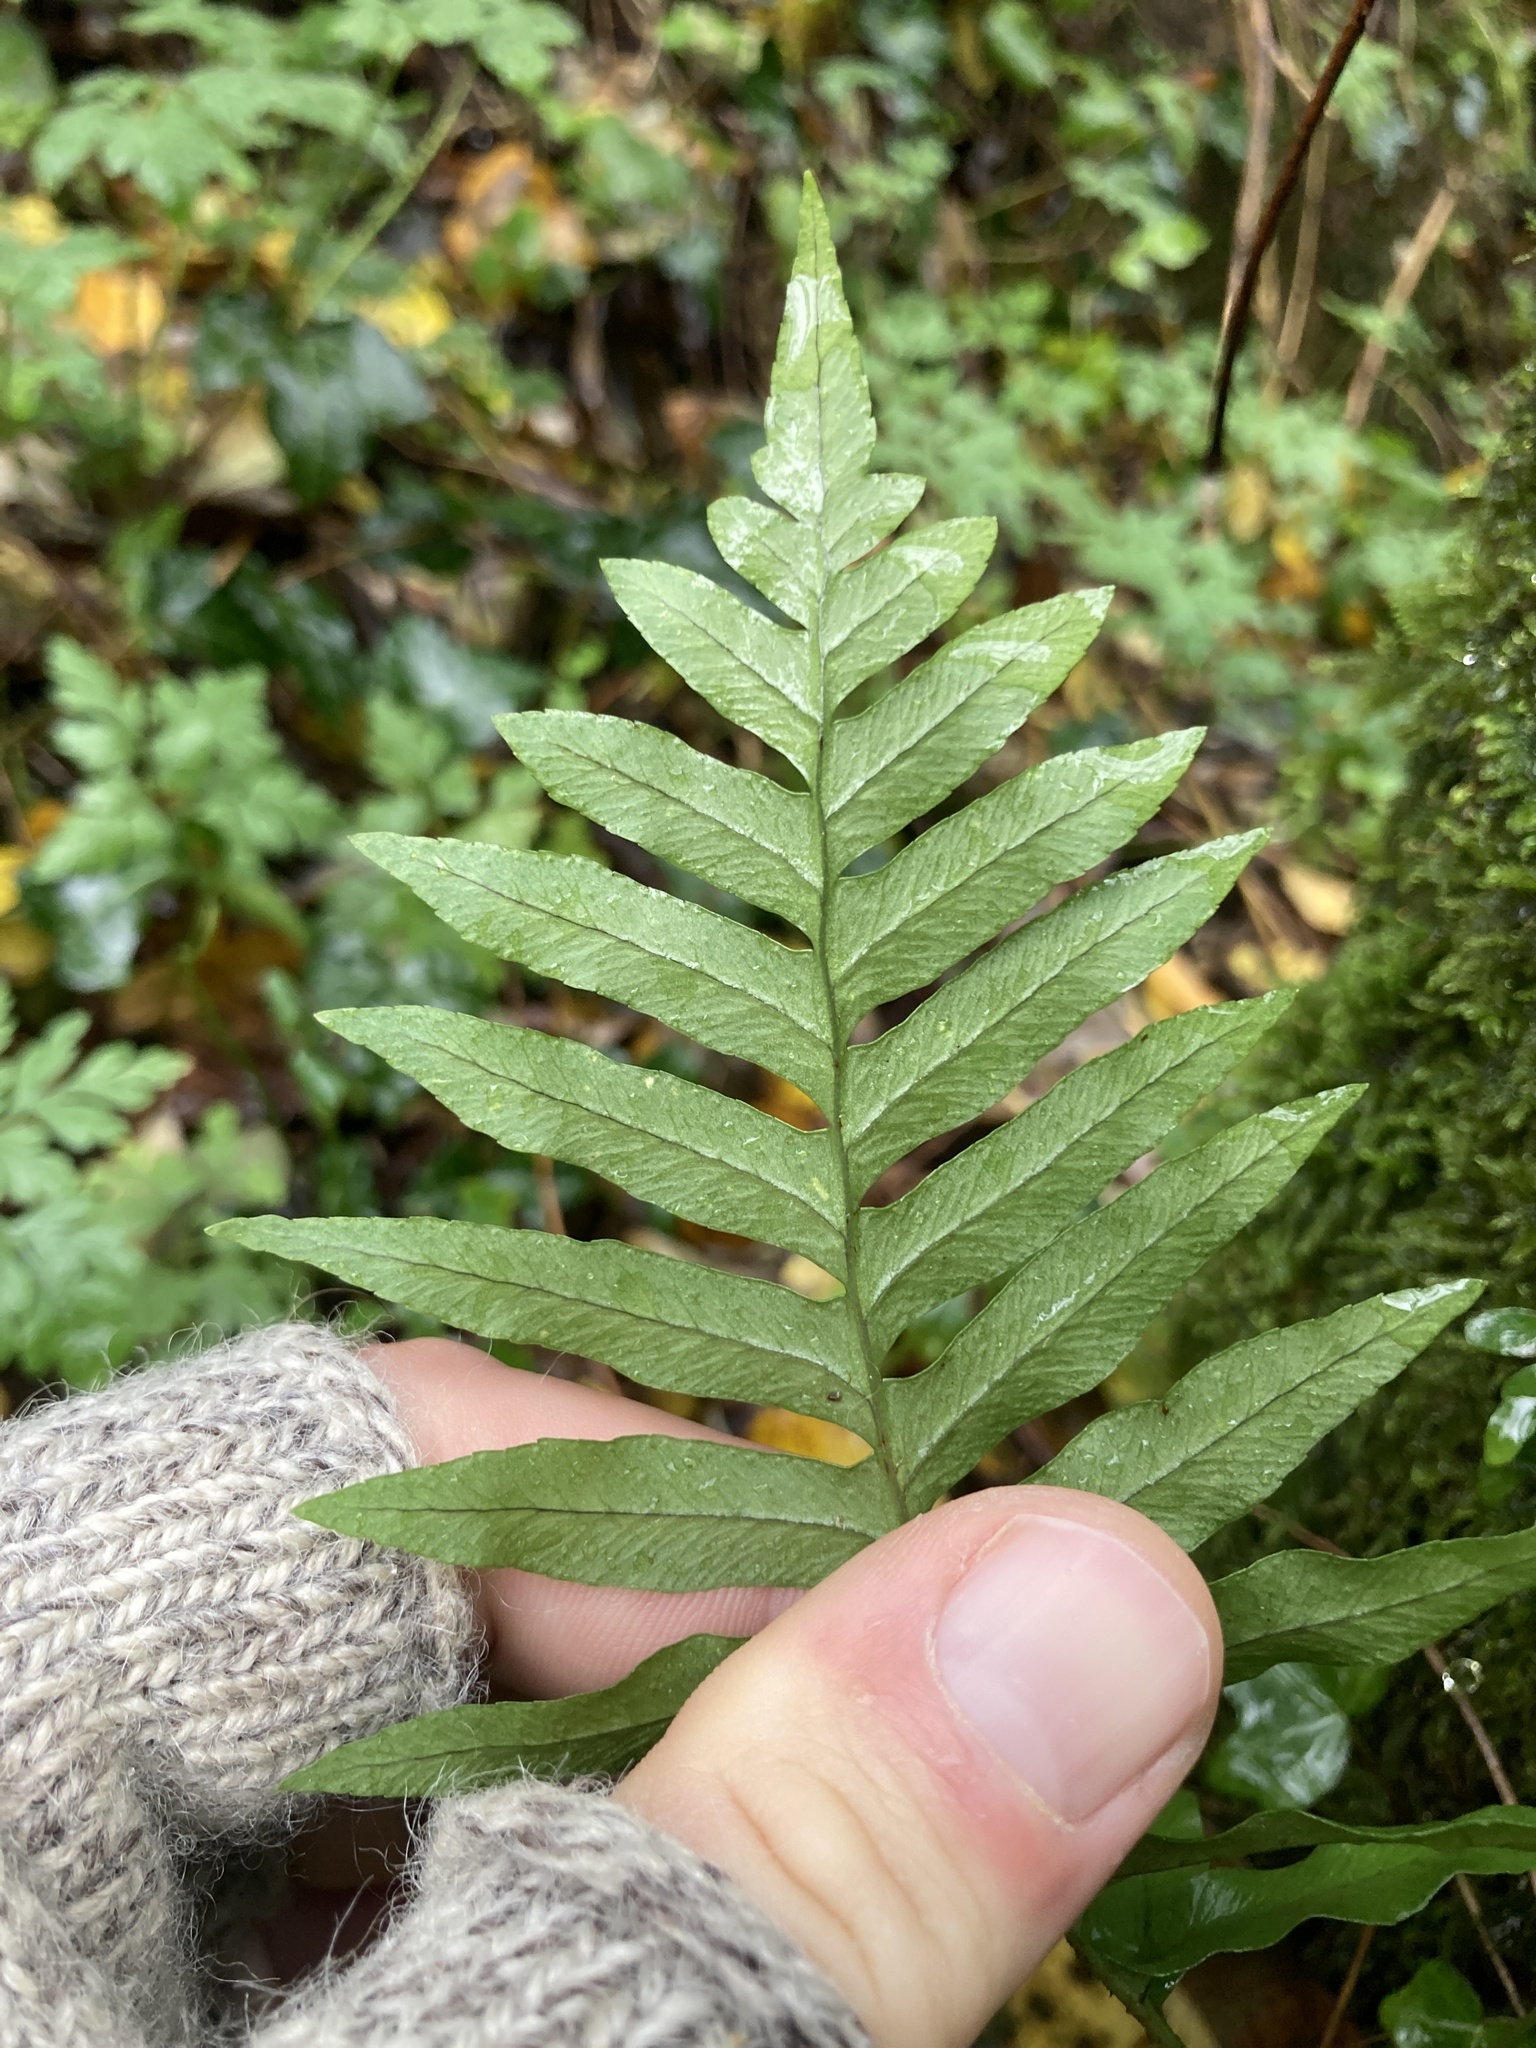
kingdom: Plantae
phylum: Tracheophyta
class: Polypodiopsida
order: Polypodiales
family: Polypodiaceae
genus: Polypodium
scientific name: Polypodium cambricum
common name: Southern polypody
